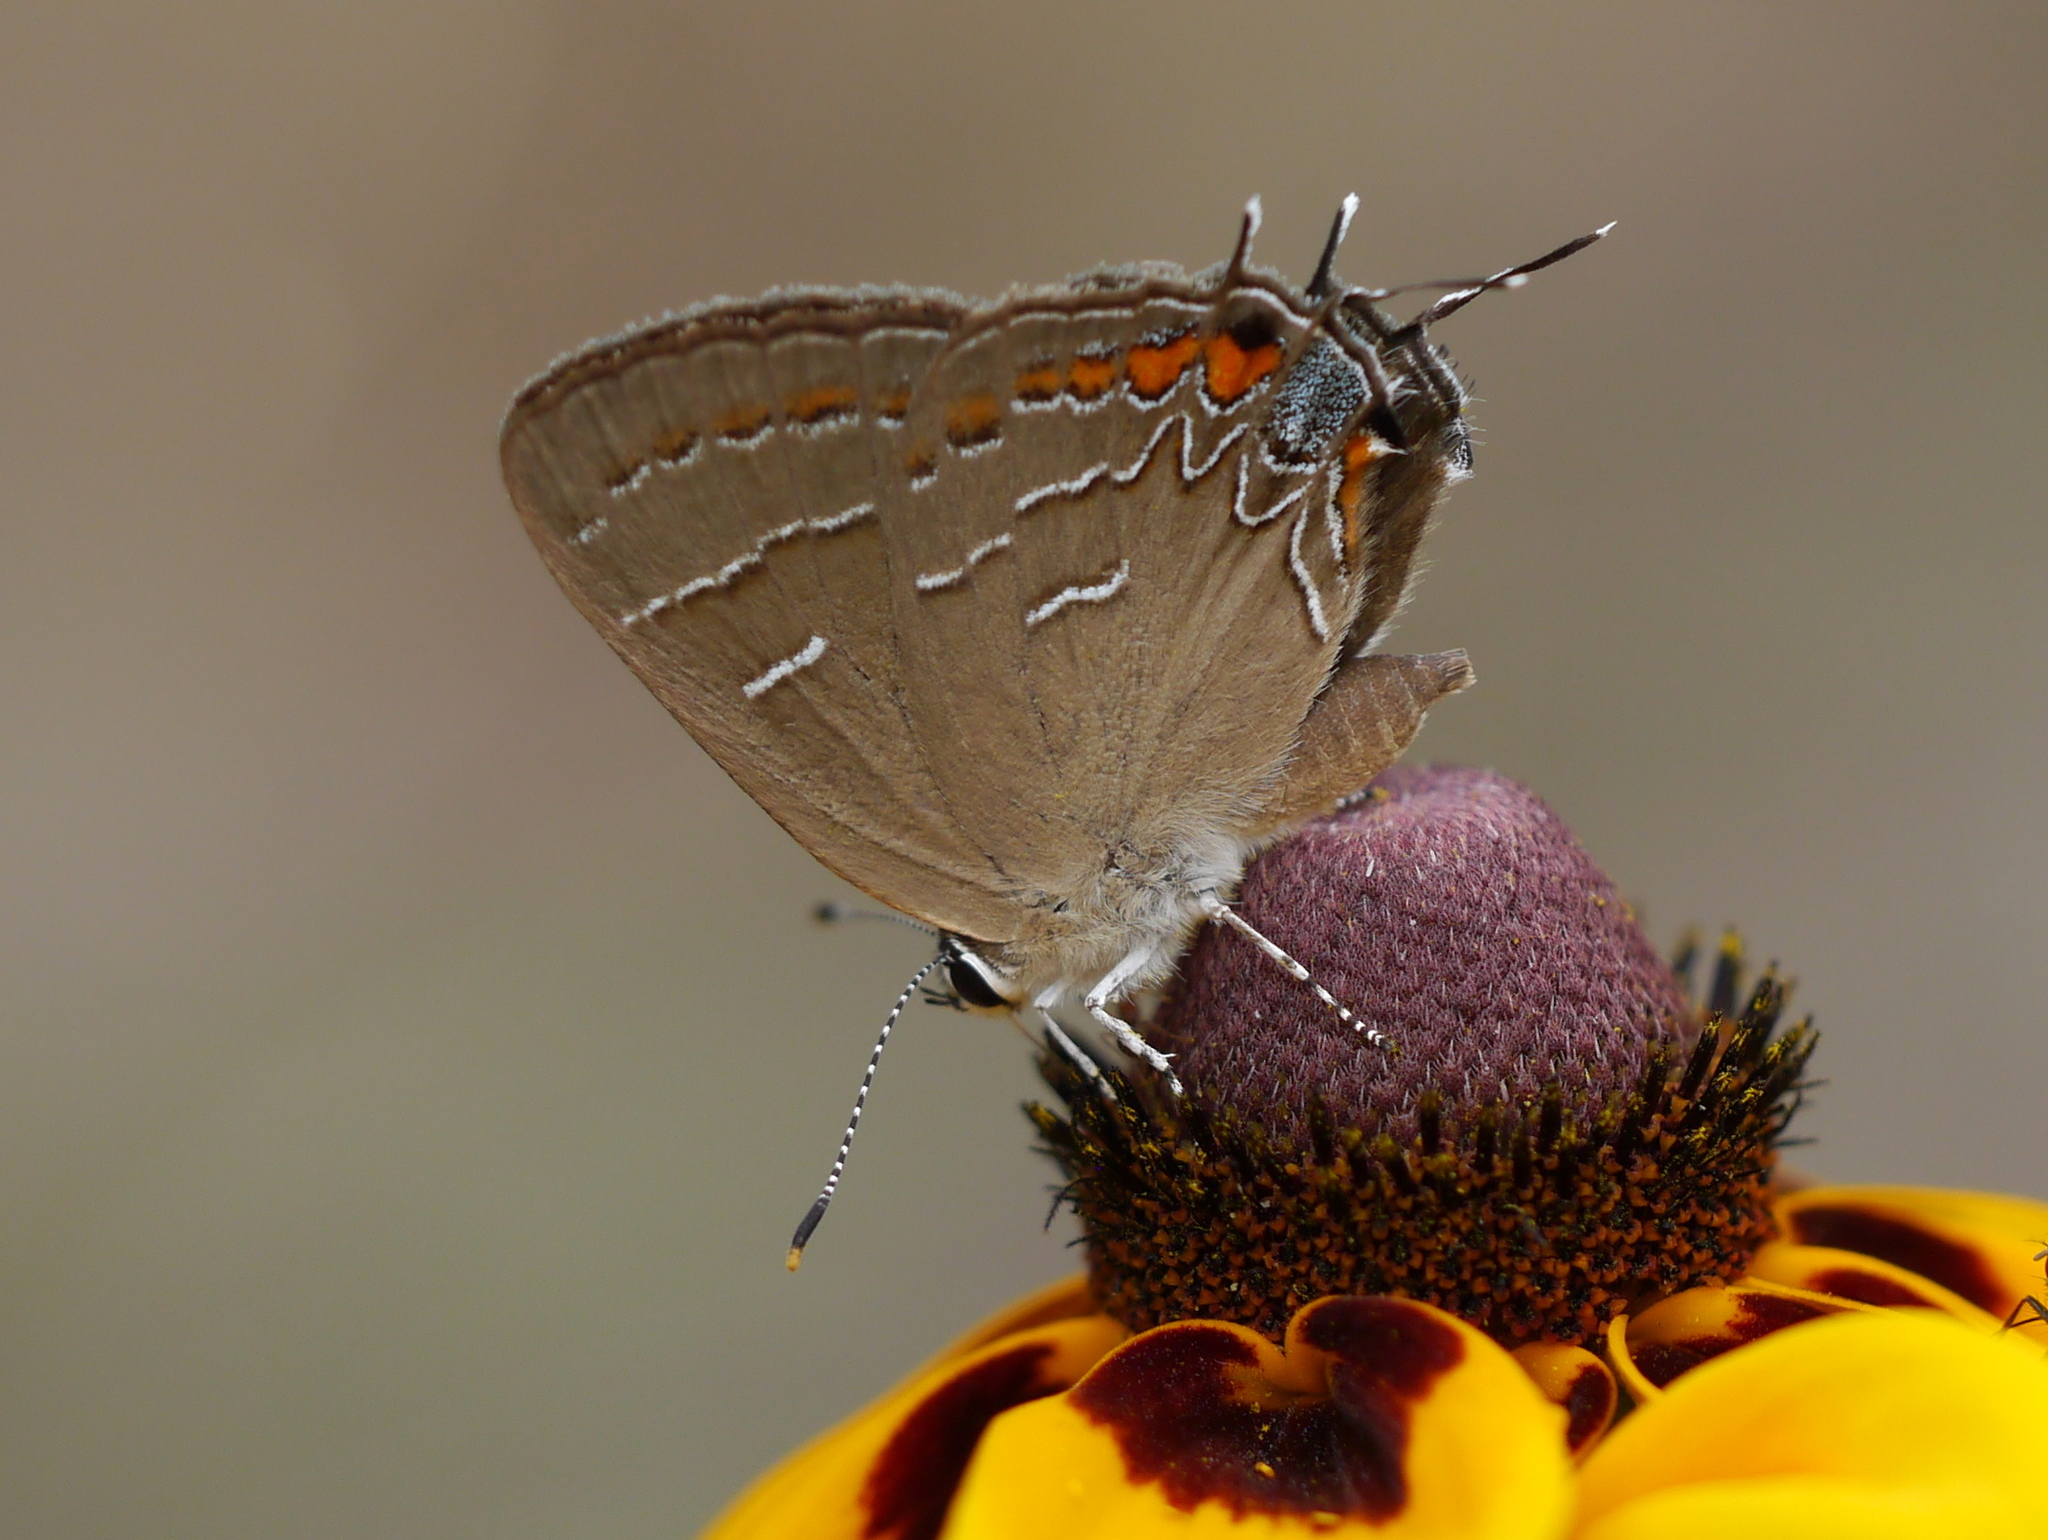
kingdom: Animalia
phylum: Arthropoda
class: Insecta
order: Lepidoptera
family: Lycaenidae
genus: Phaeostrymon
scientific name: Phaeostrymon alcestis
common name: Soapberry hairstreak
